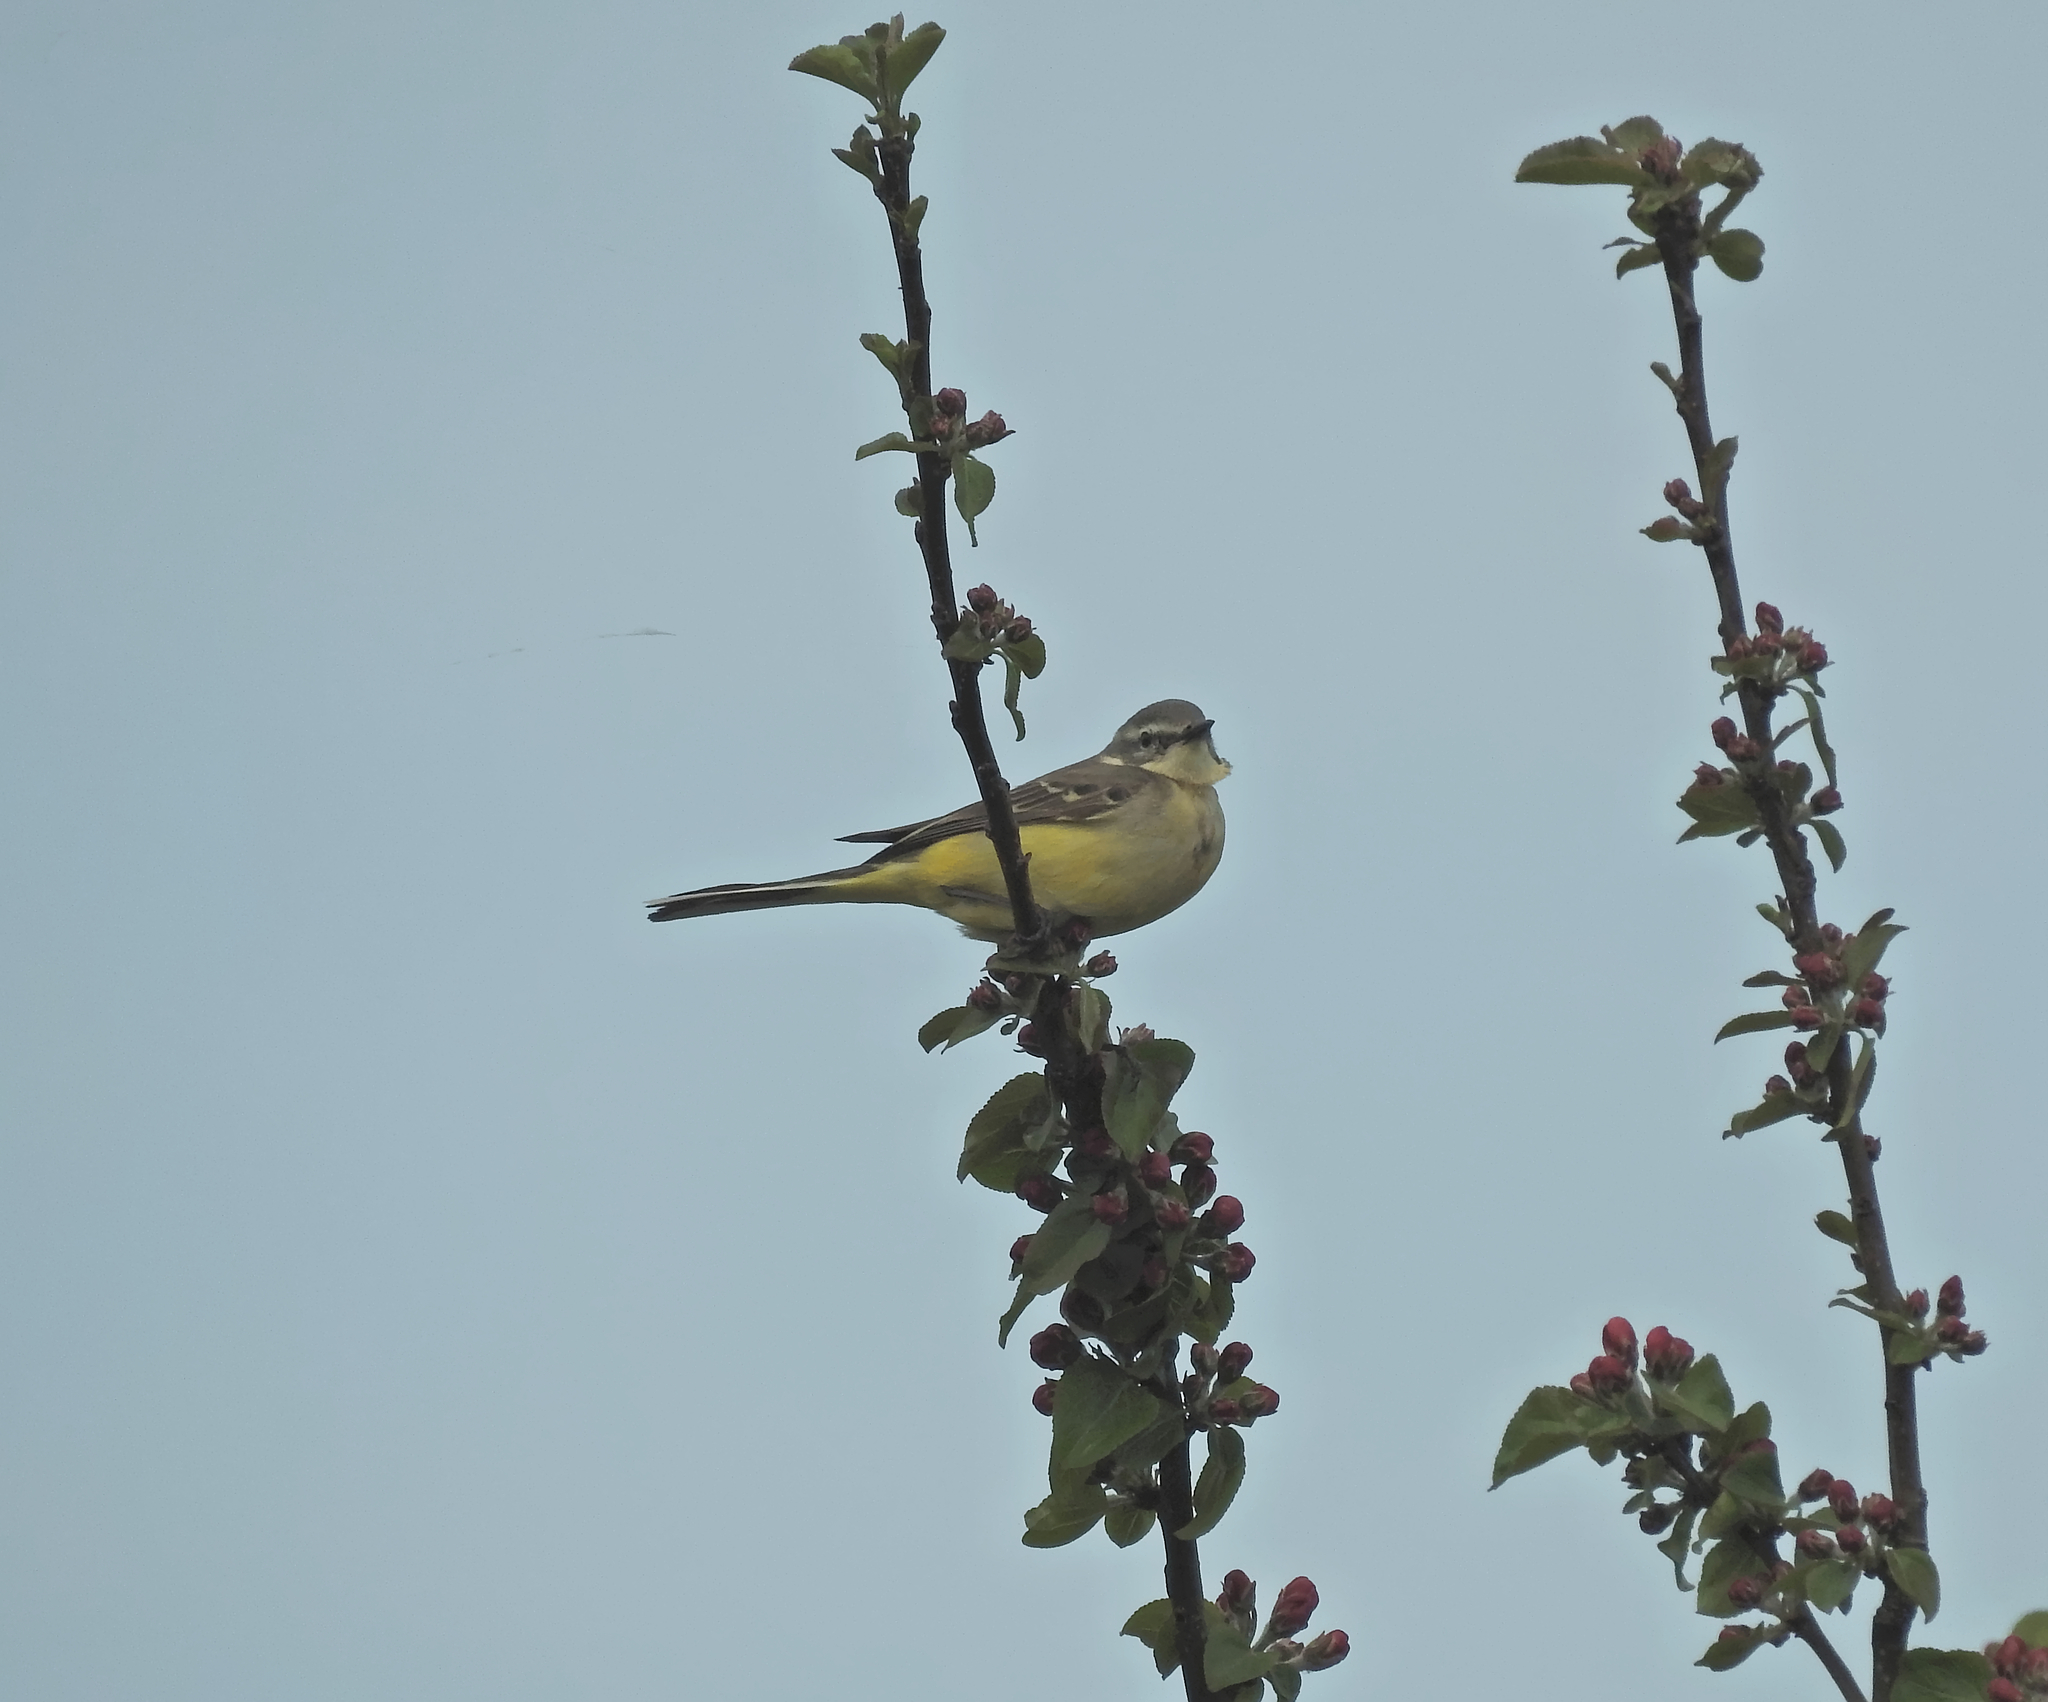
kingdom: Animalia
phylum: Chordata
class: Aves
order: Passeriformes
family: Motacillidae
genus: Motacilla
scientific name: Motacilla flava
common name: Western yellow wagtail
